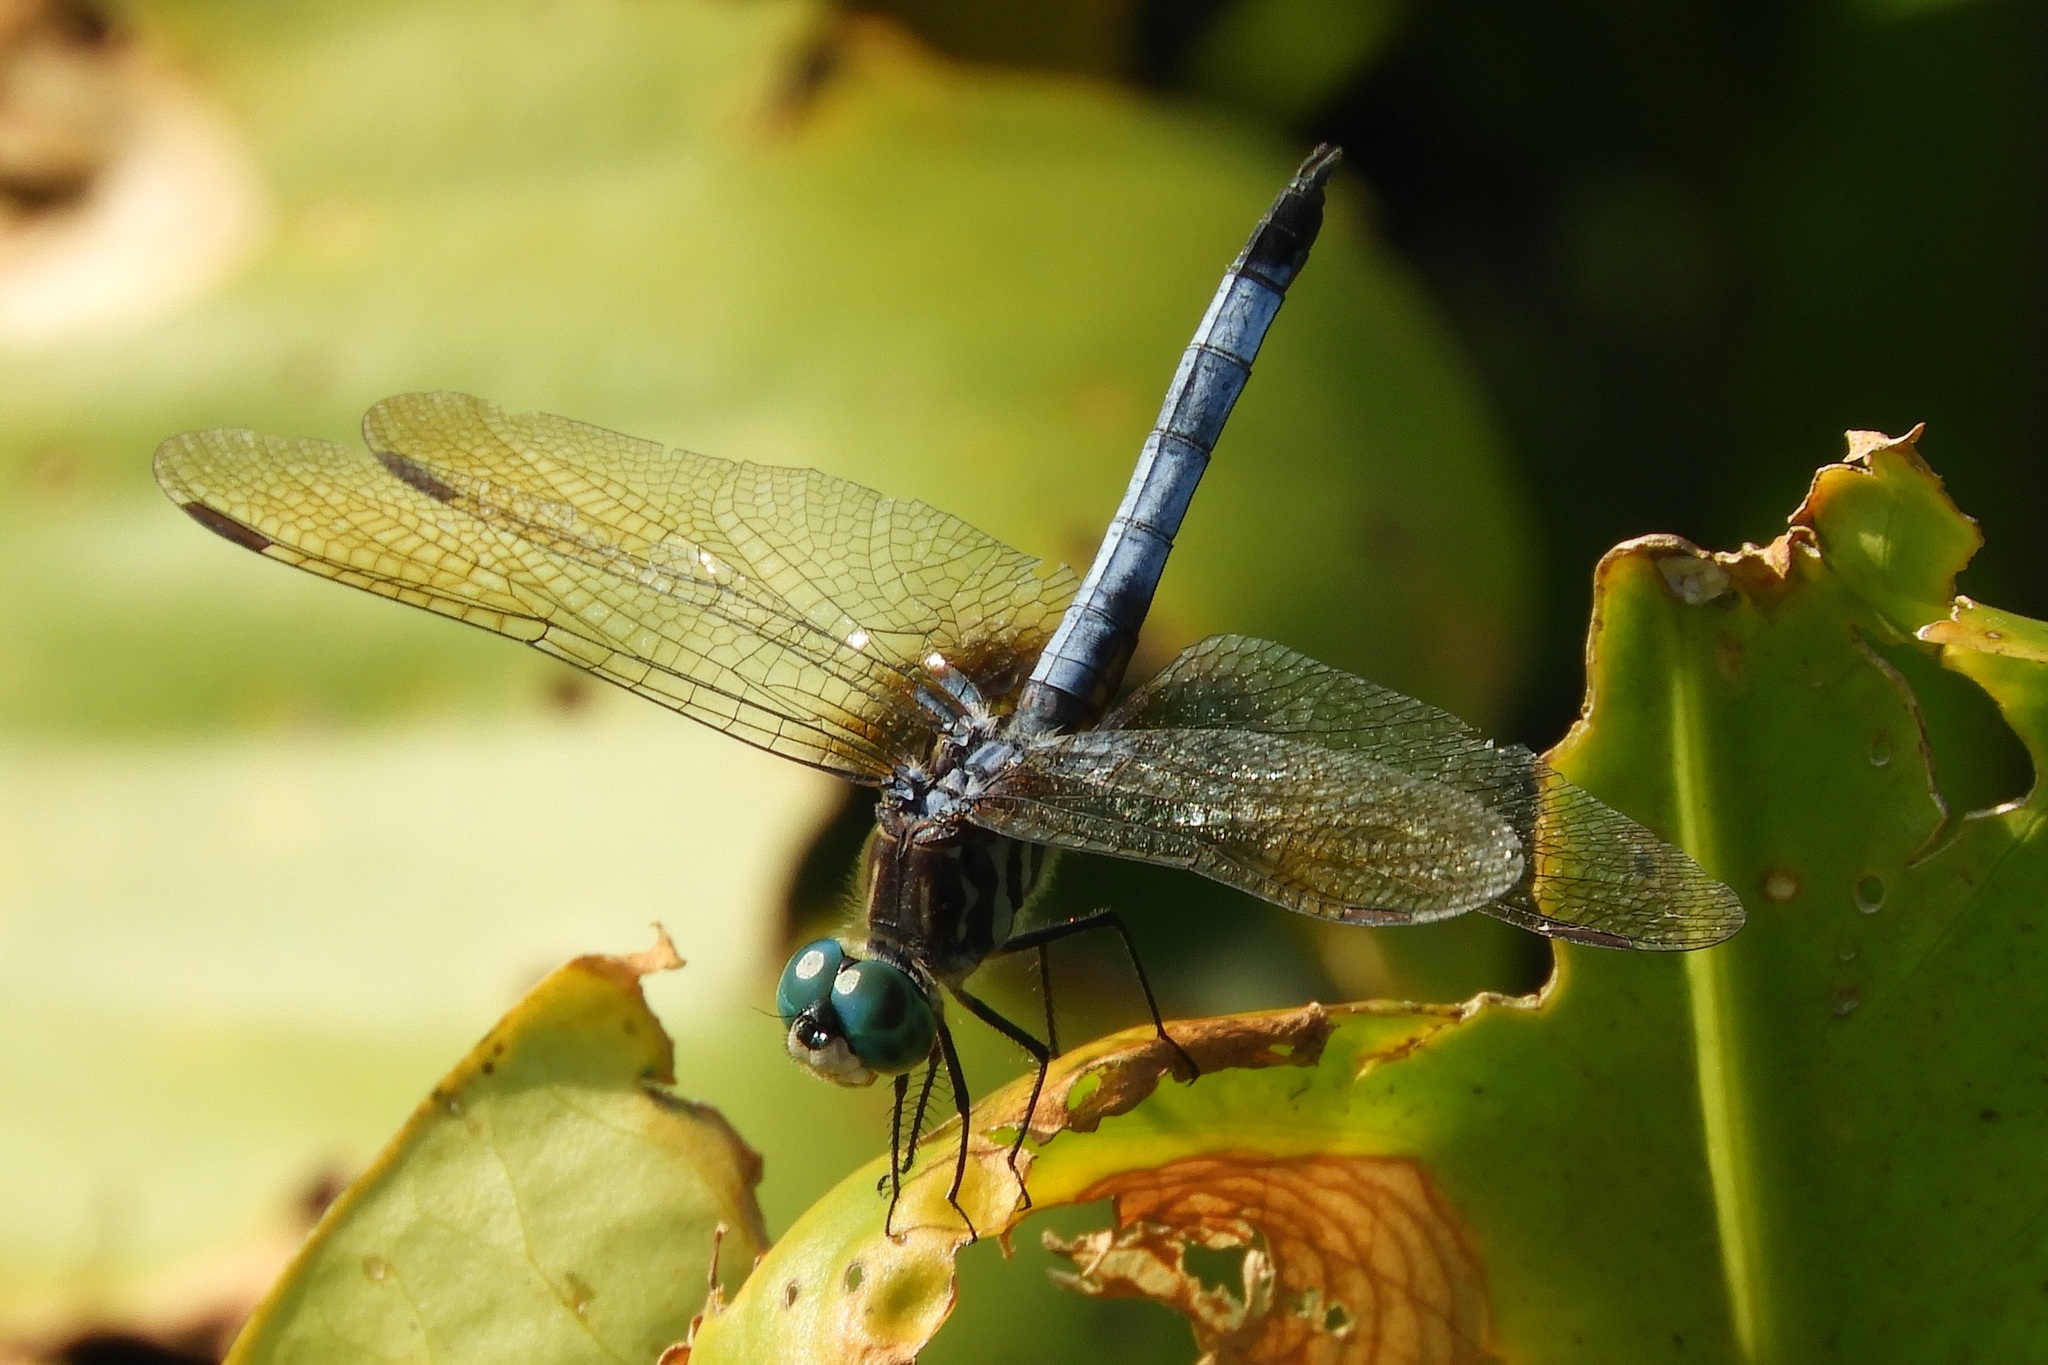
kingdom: Animalia
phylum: Arthropoda
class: Insecta
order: Odonata
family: Libellulidae
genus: Pachydiplax
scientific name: Pachydiplax longipennis
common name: Blue dasher
